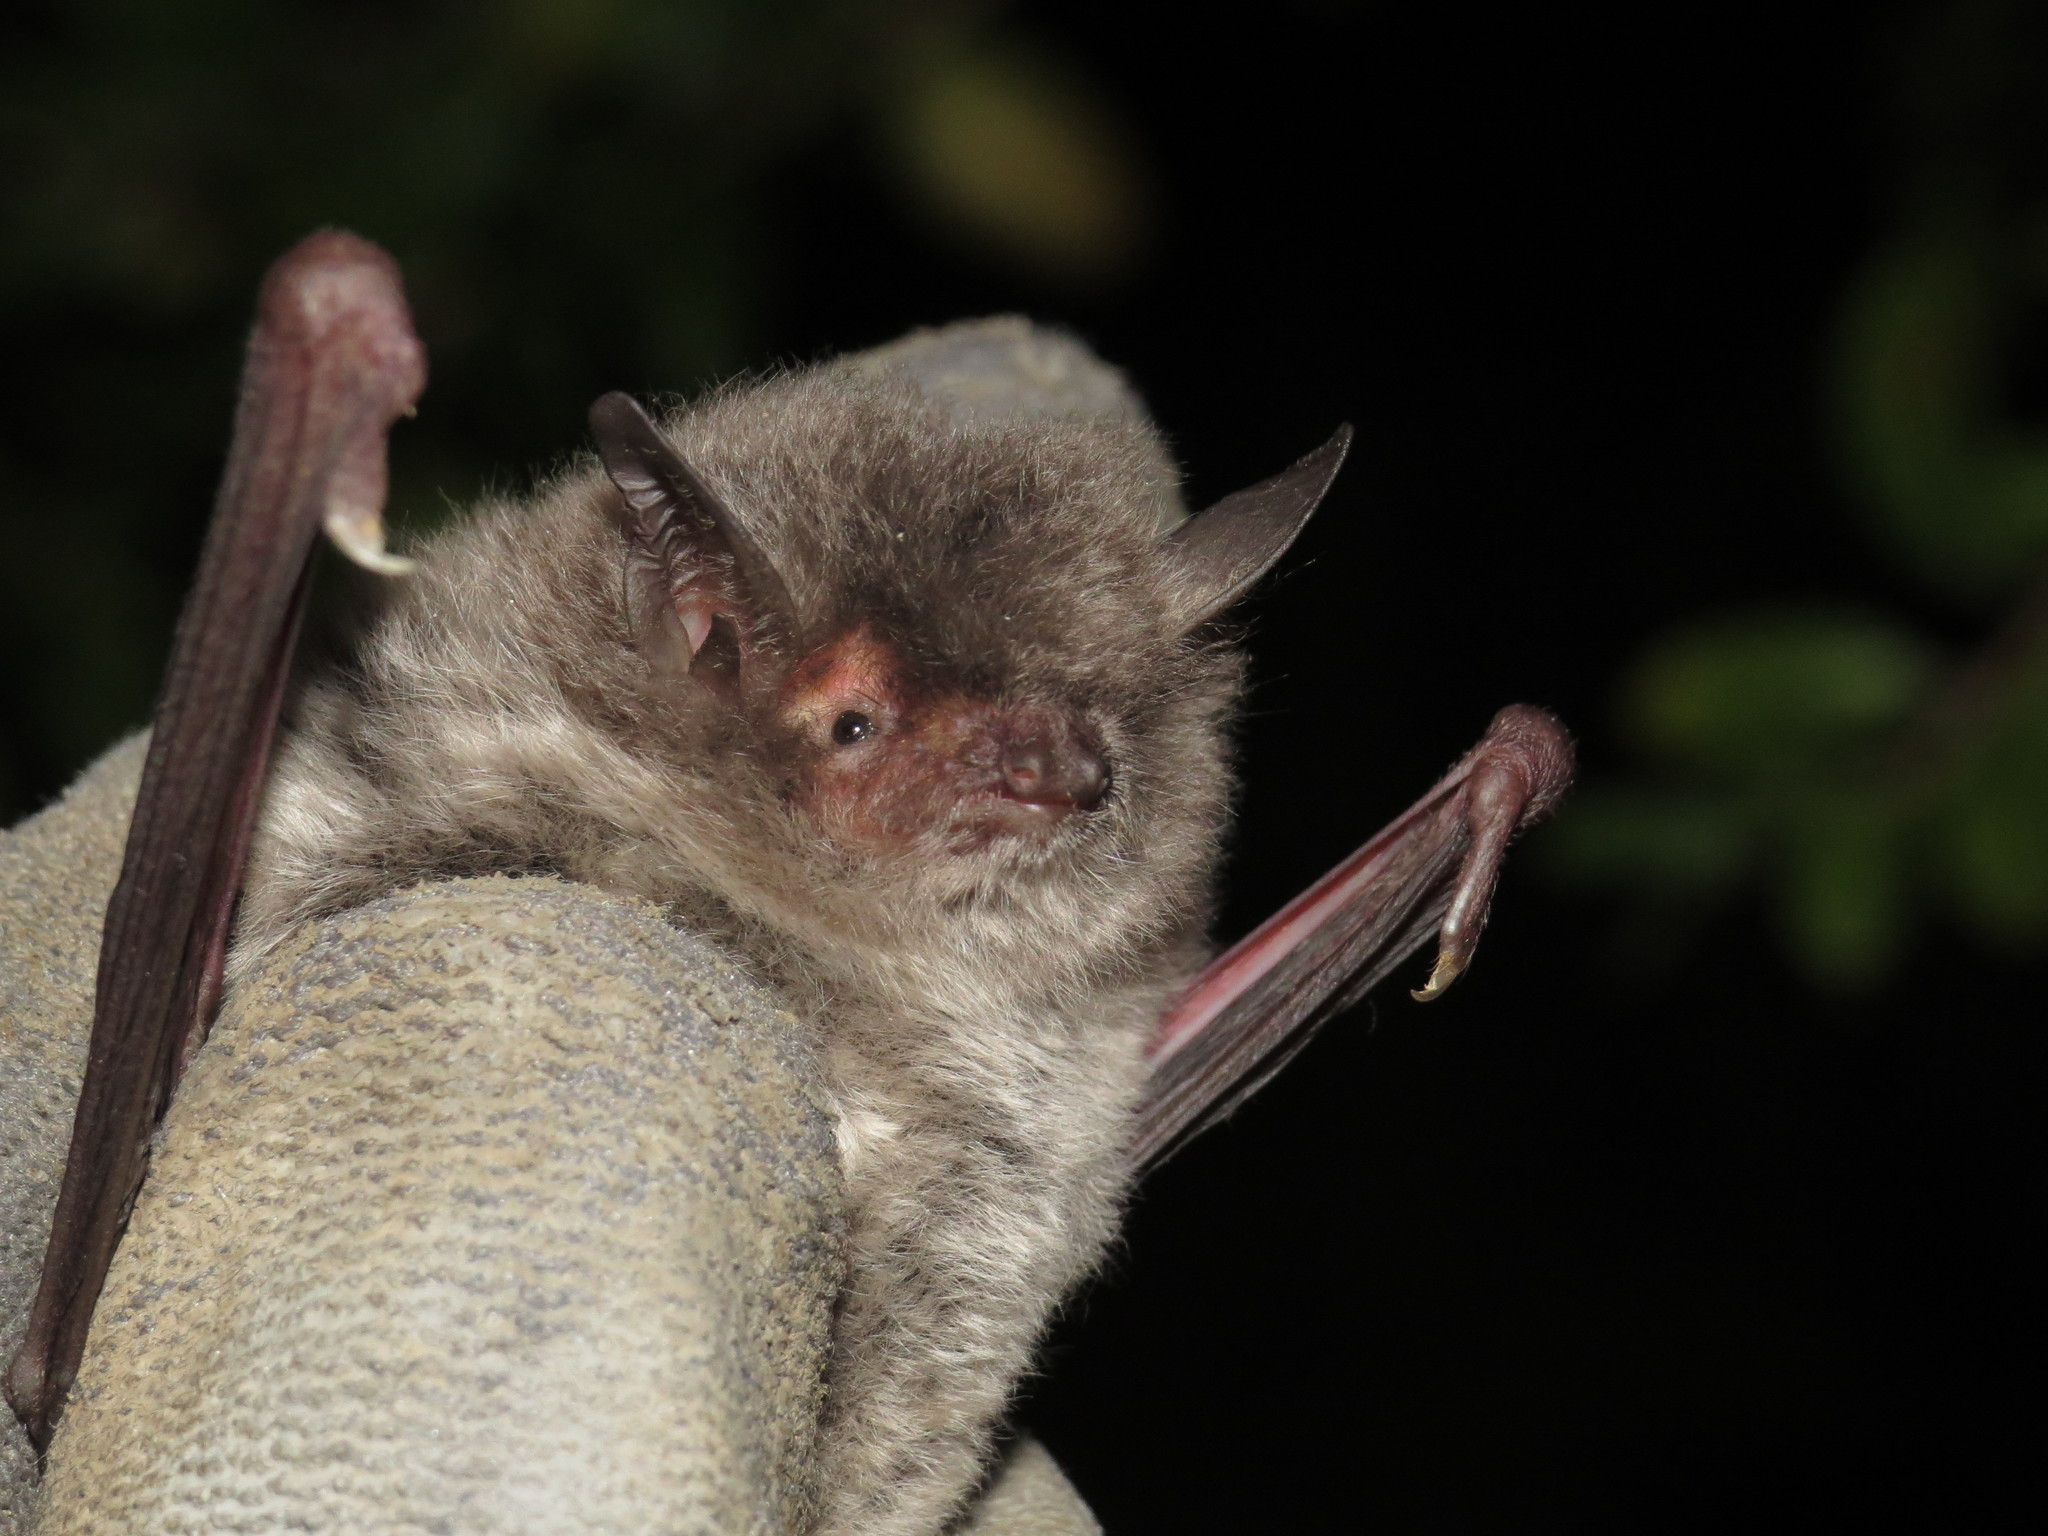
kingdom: Animalia
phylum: Chordata
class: Mammalia
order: Chiroptera
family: Vespertilionidae
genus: Myotis
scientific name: Myotis capaccinii
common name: Long-fingered bat
